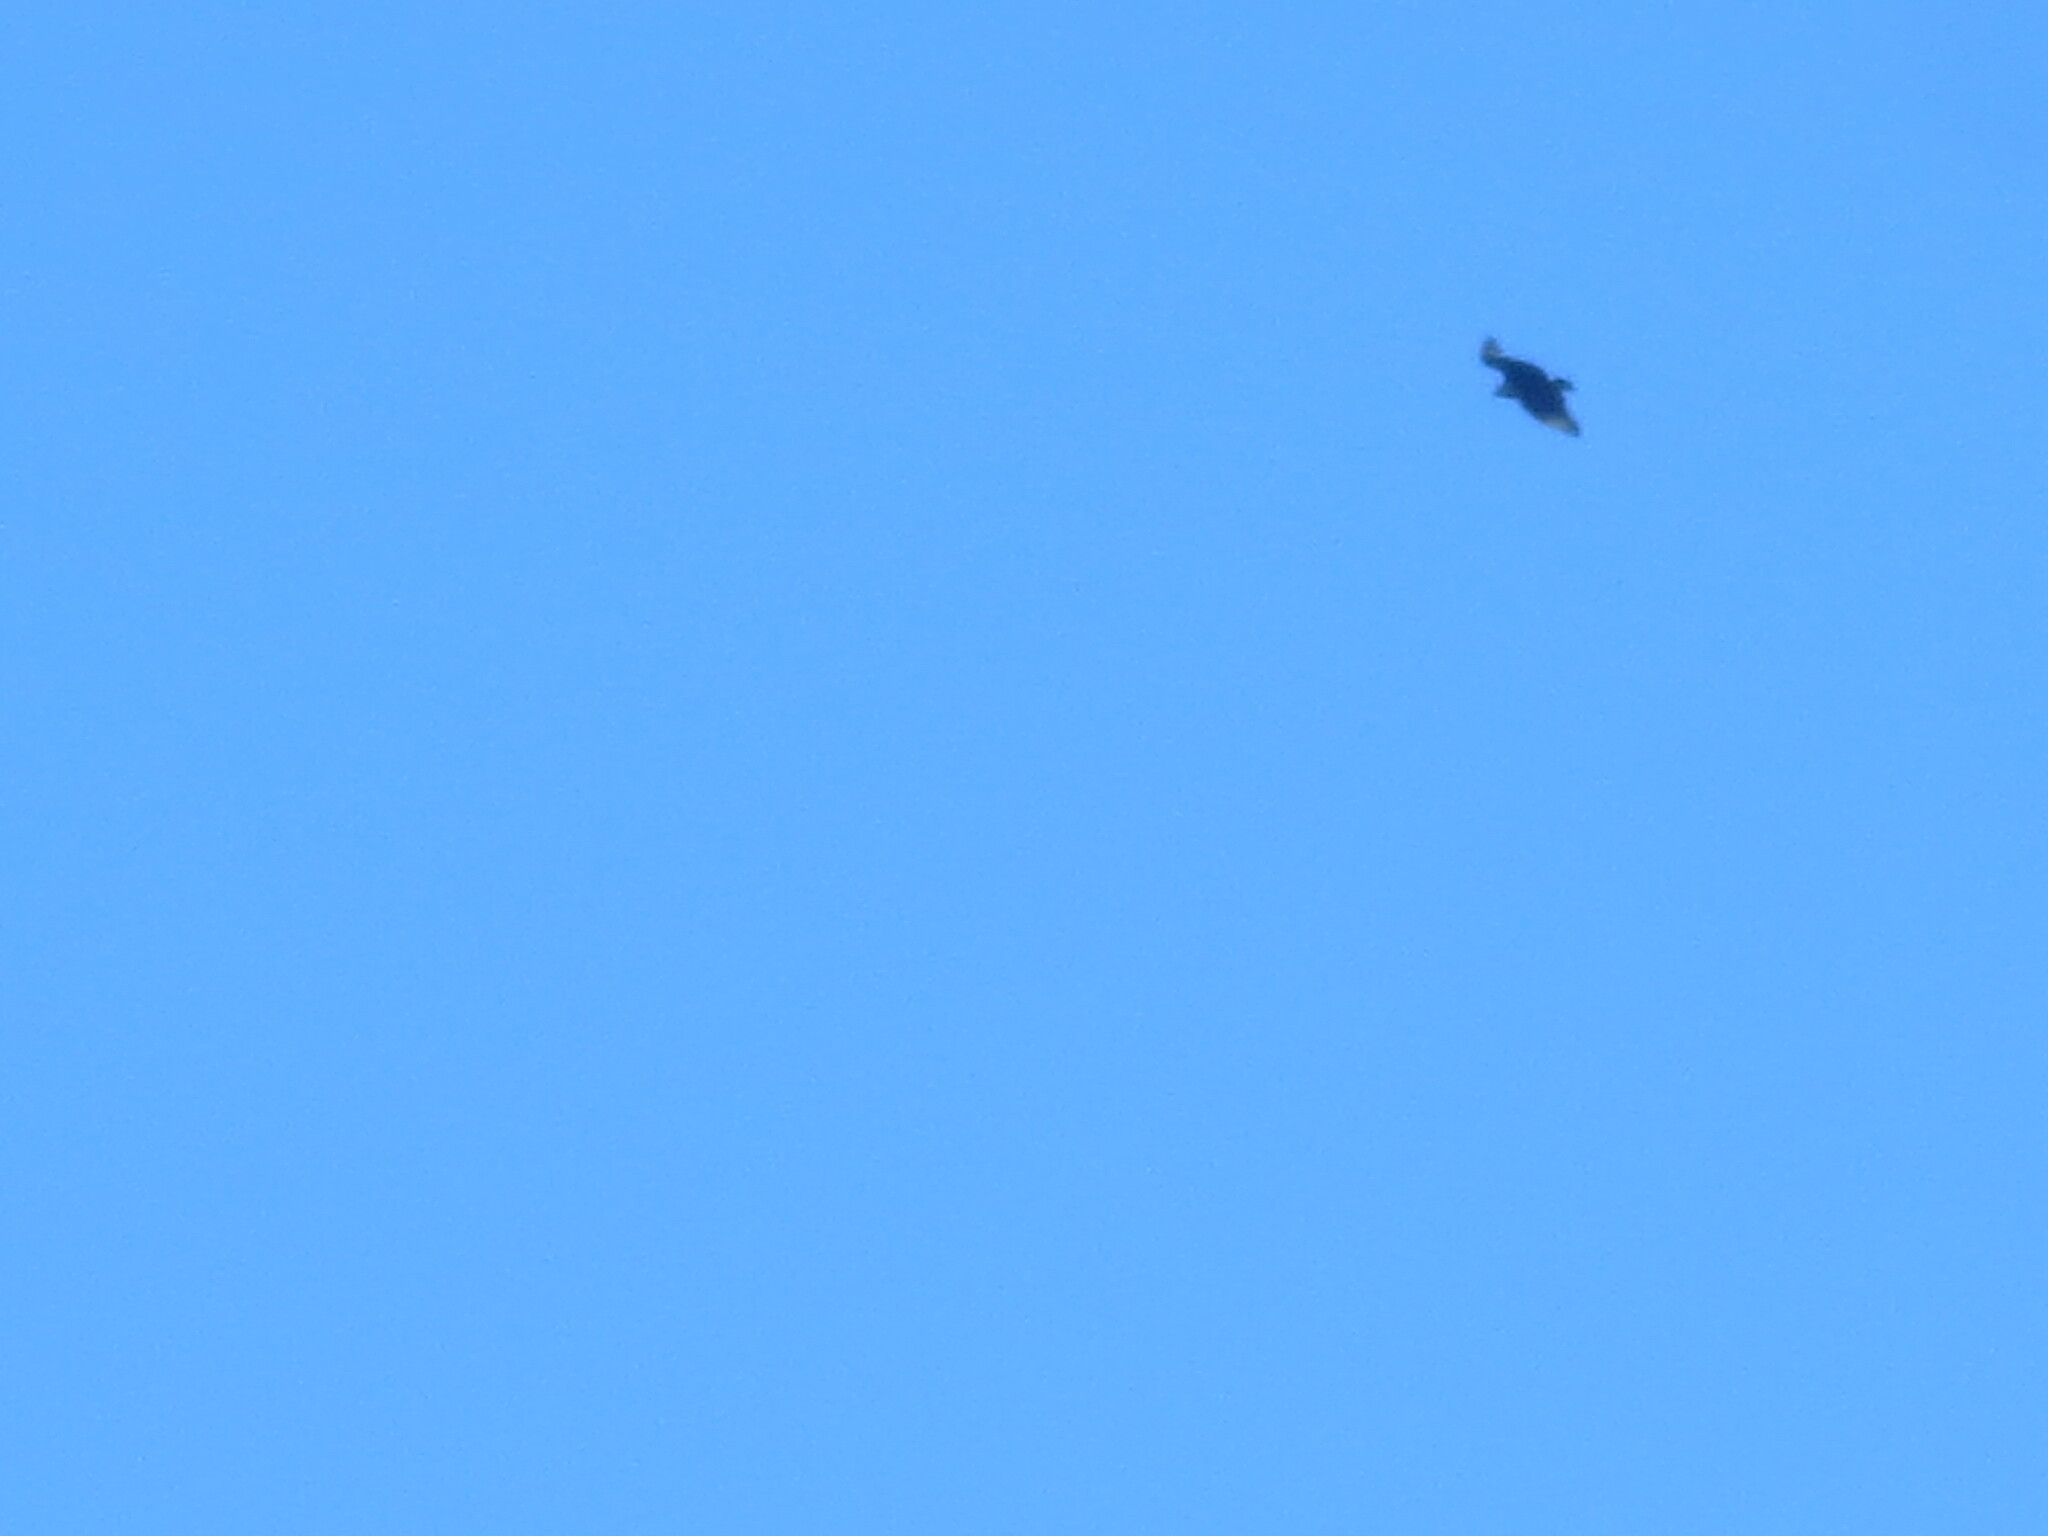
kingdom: Animalia
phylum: Chordata
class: Aves
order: Accipitriformes
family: Cathartidae
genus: Coragyps
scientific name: Coragyps atratus
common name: Black vulture
